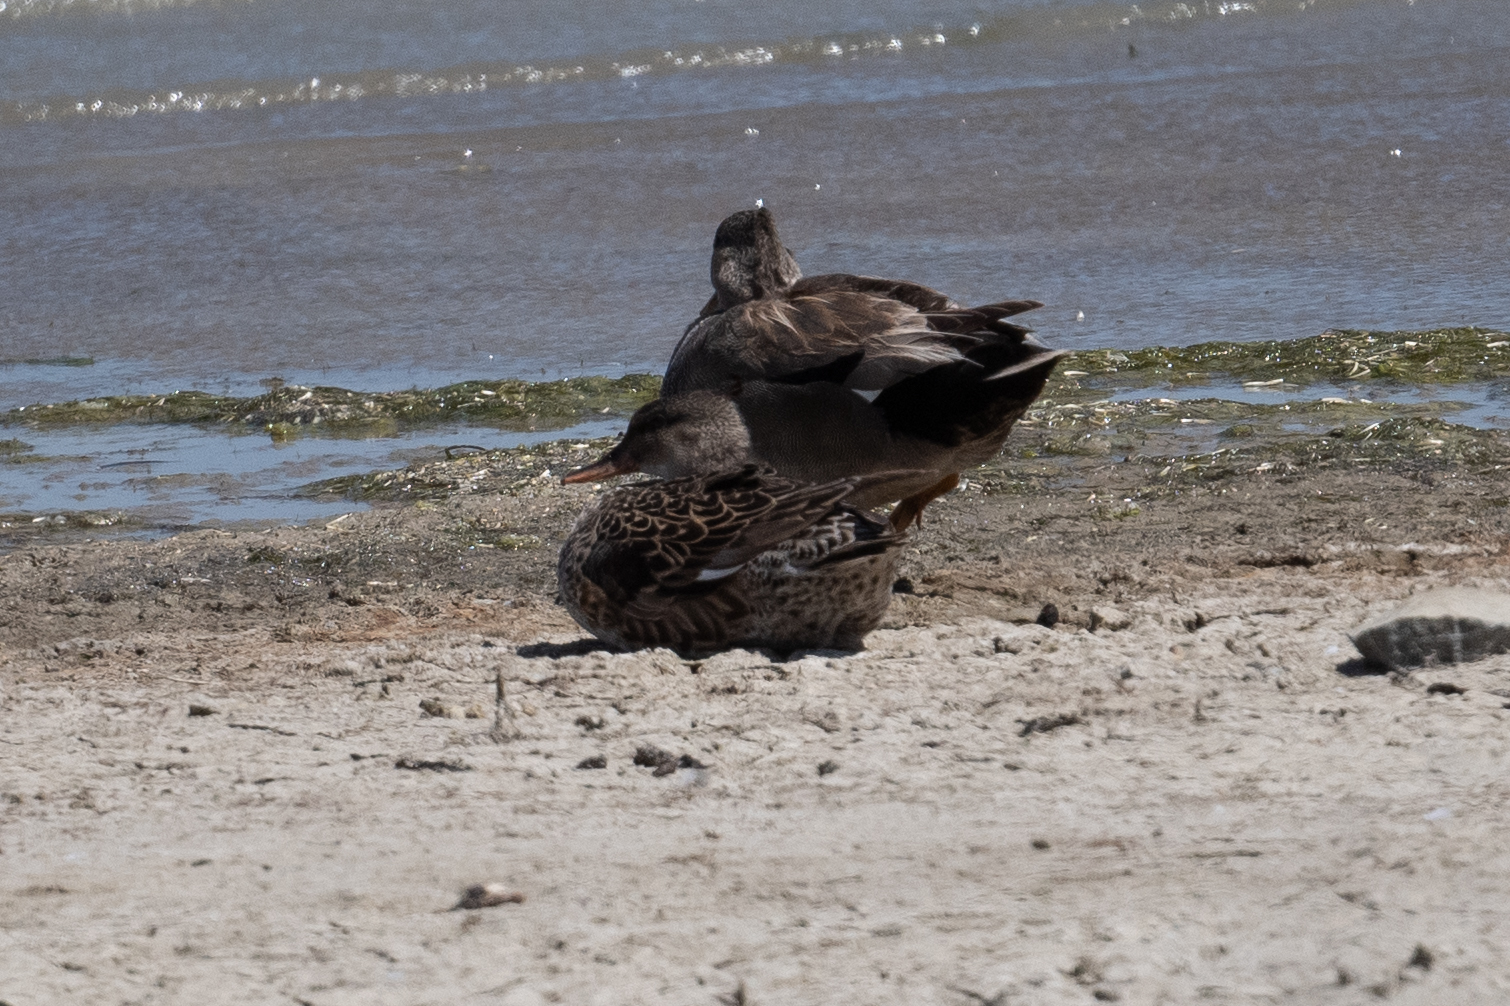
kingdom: Animalia
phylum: Chordata
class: Aves
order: Anseriformes
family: Anatidae
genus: Mareca
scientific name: Mareca strepera
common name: Gadwall
